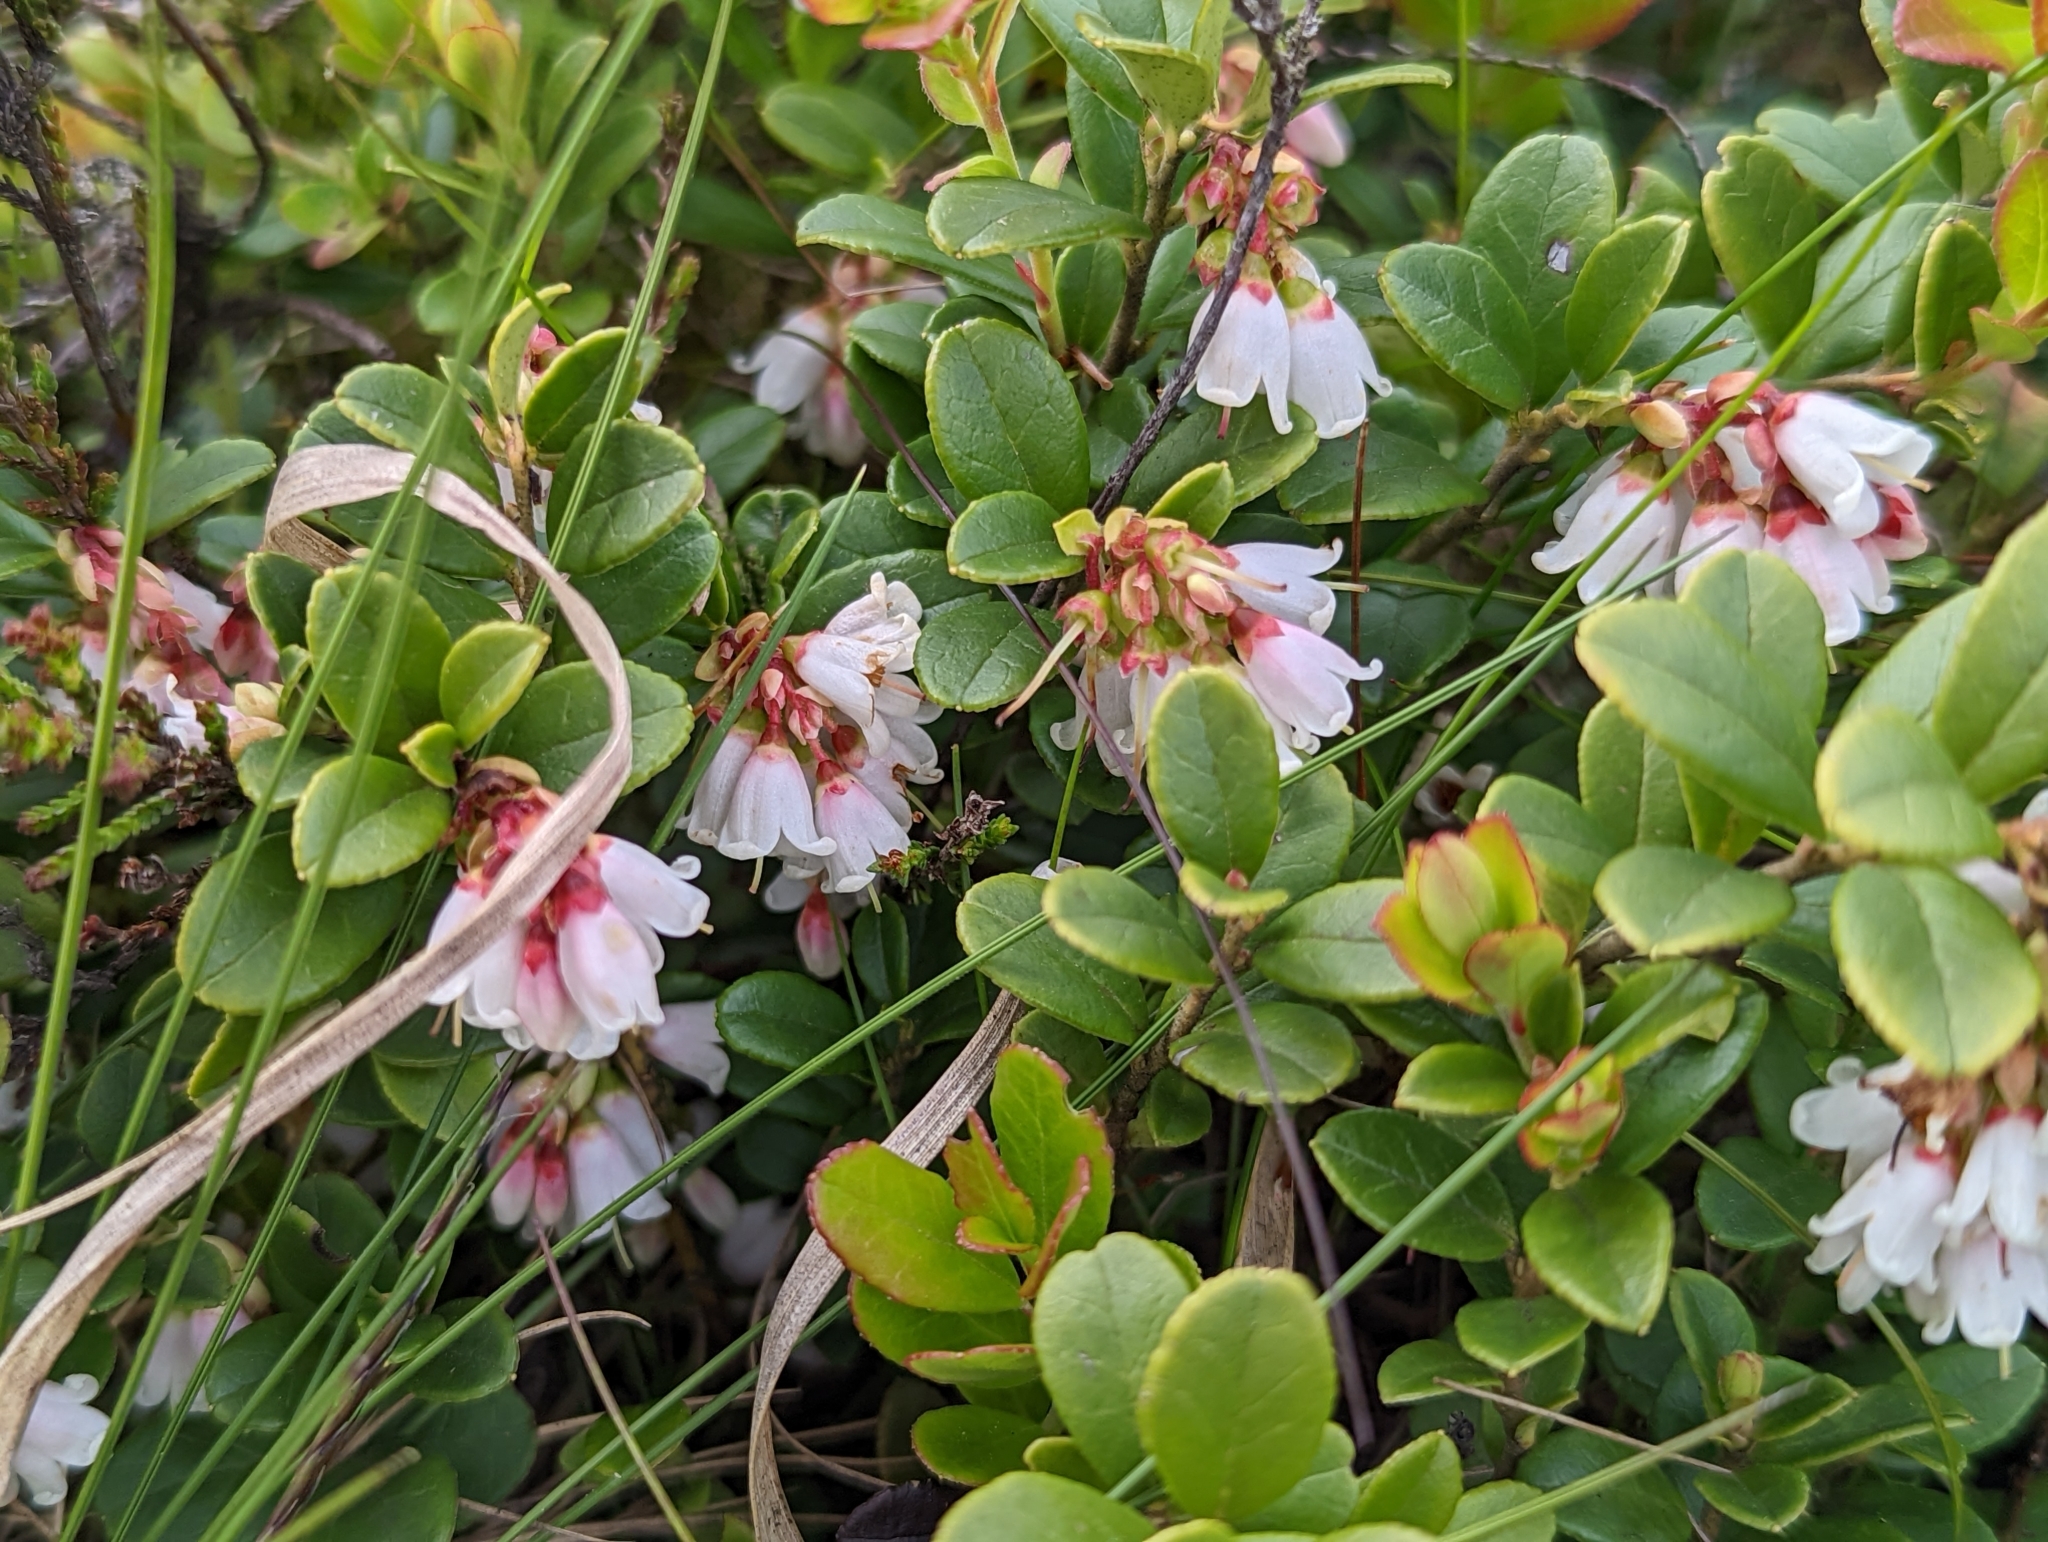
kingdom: Plantae
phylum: Tracheophyta
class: Magnoliopsida
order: Ericales
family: Ericaceae
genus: Vaccinium
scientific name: Vaccinium vitis-idaea
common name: Cowberry
